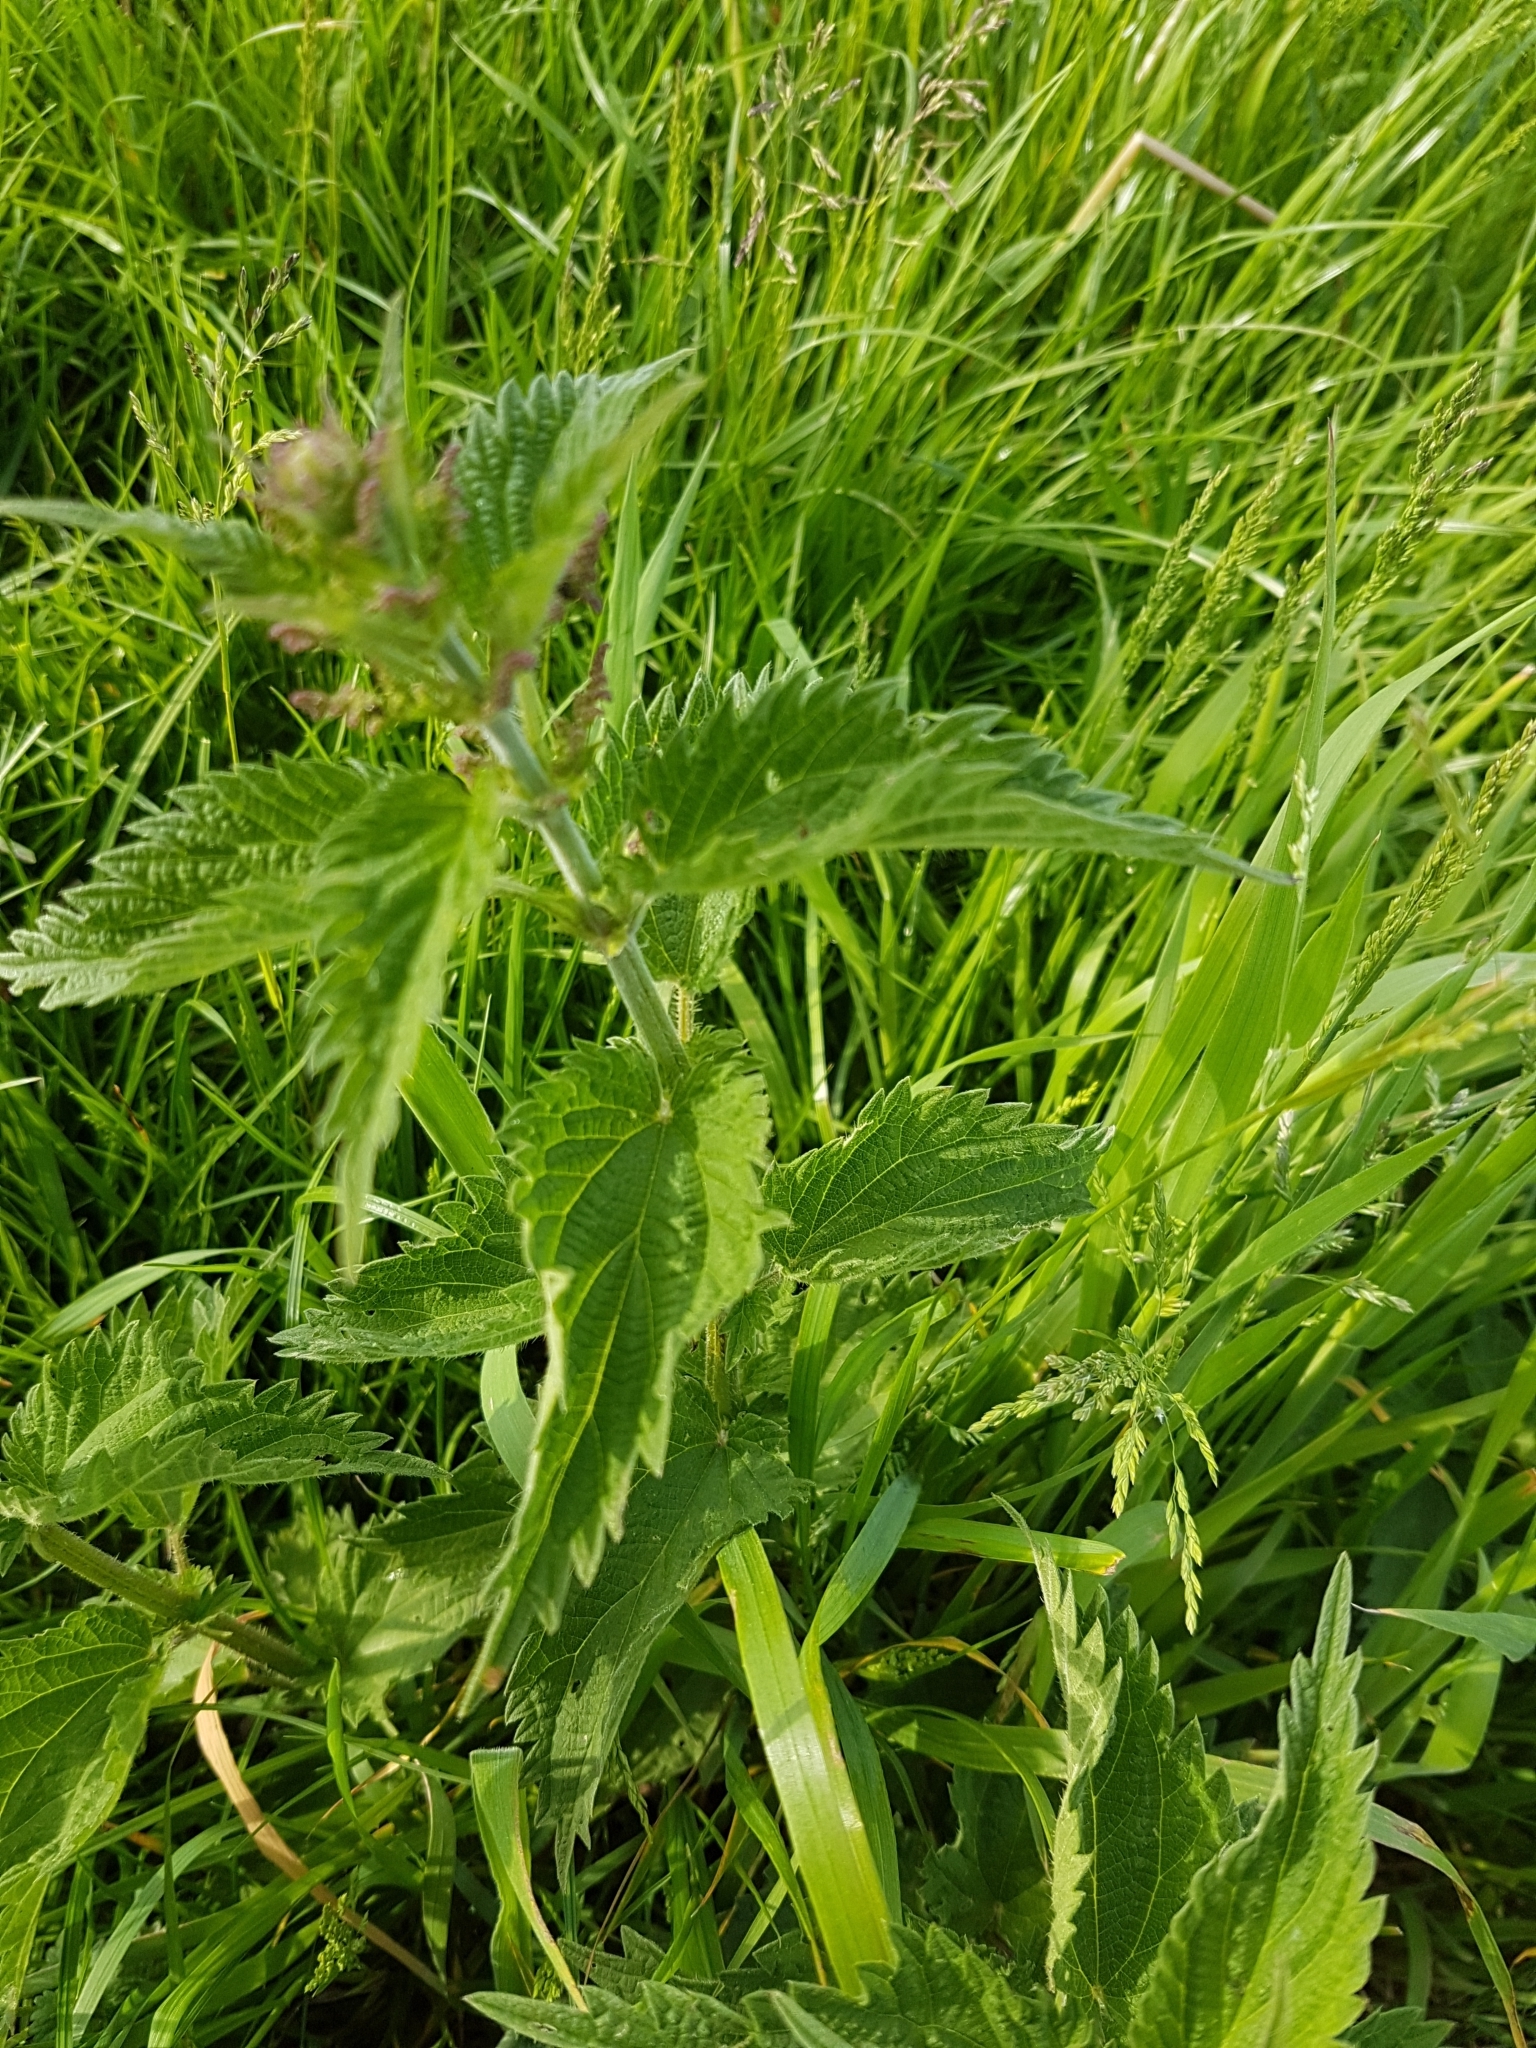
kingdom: Plantae
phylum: Tracheophyta
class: Magnoliopsida
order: Rosales
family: Urticaceae
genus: Urtica
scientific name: Urtica dioica
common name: Common nettle
